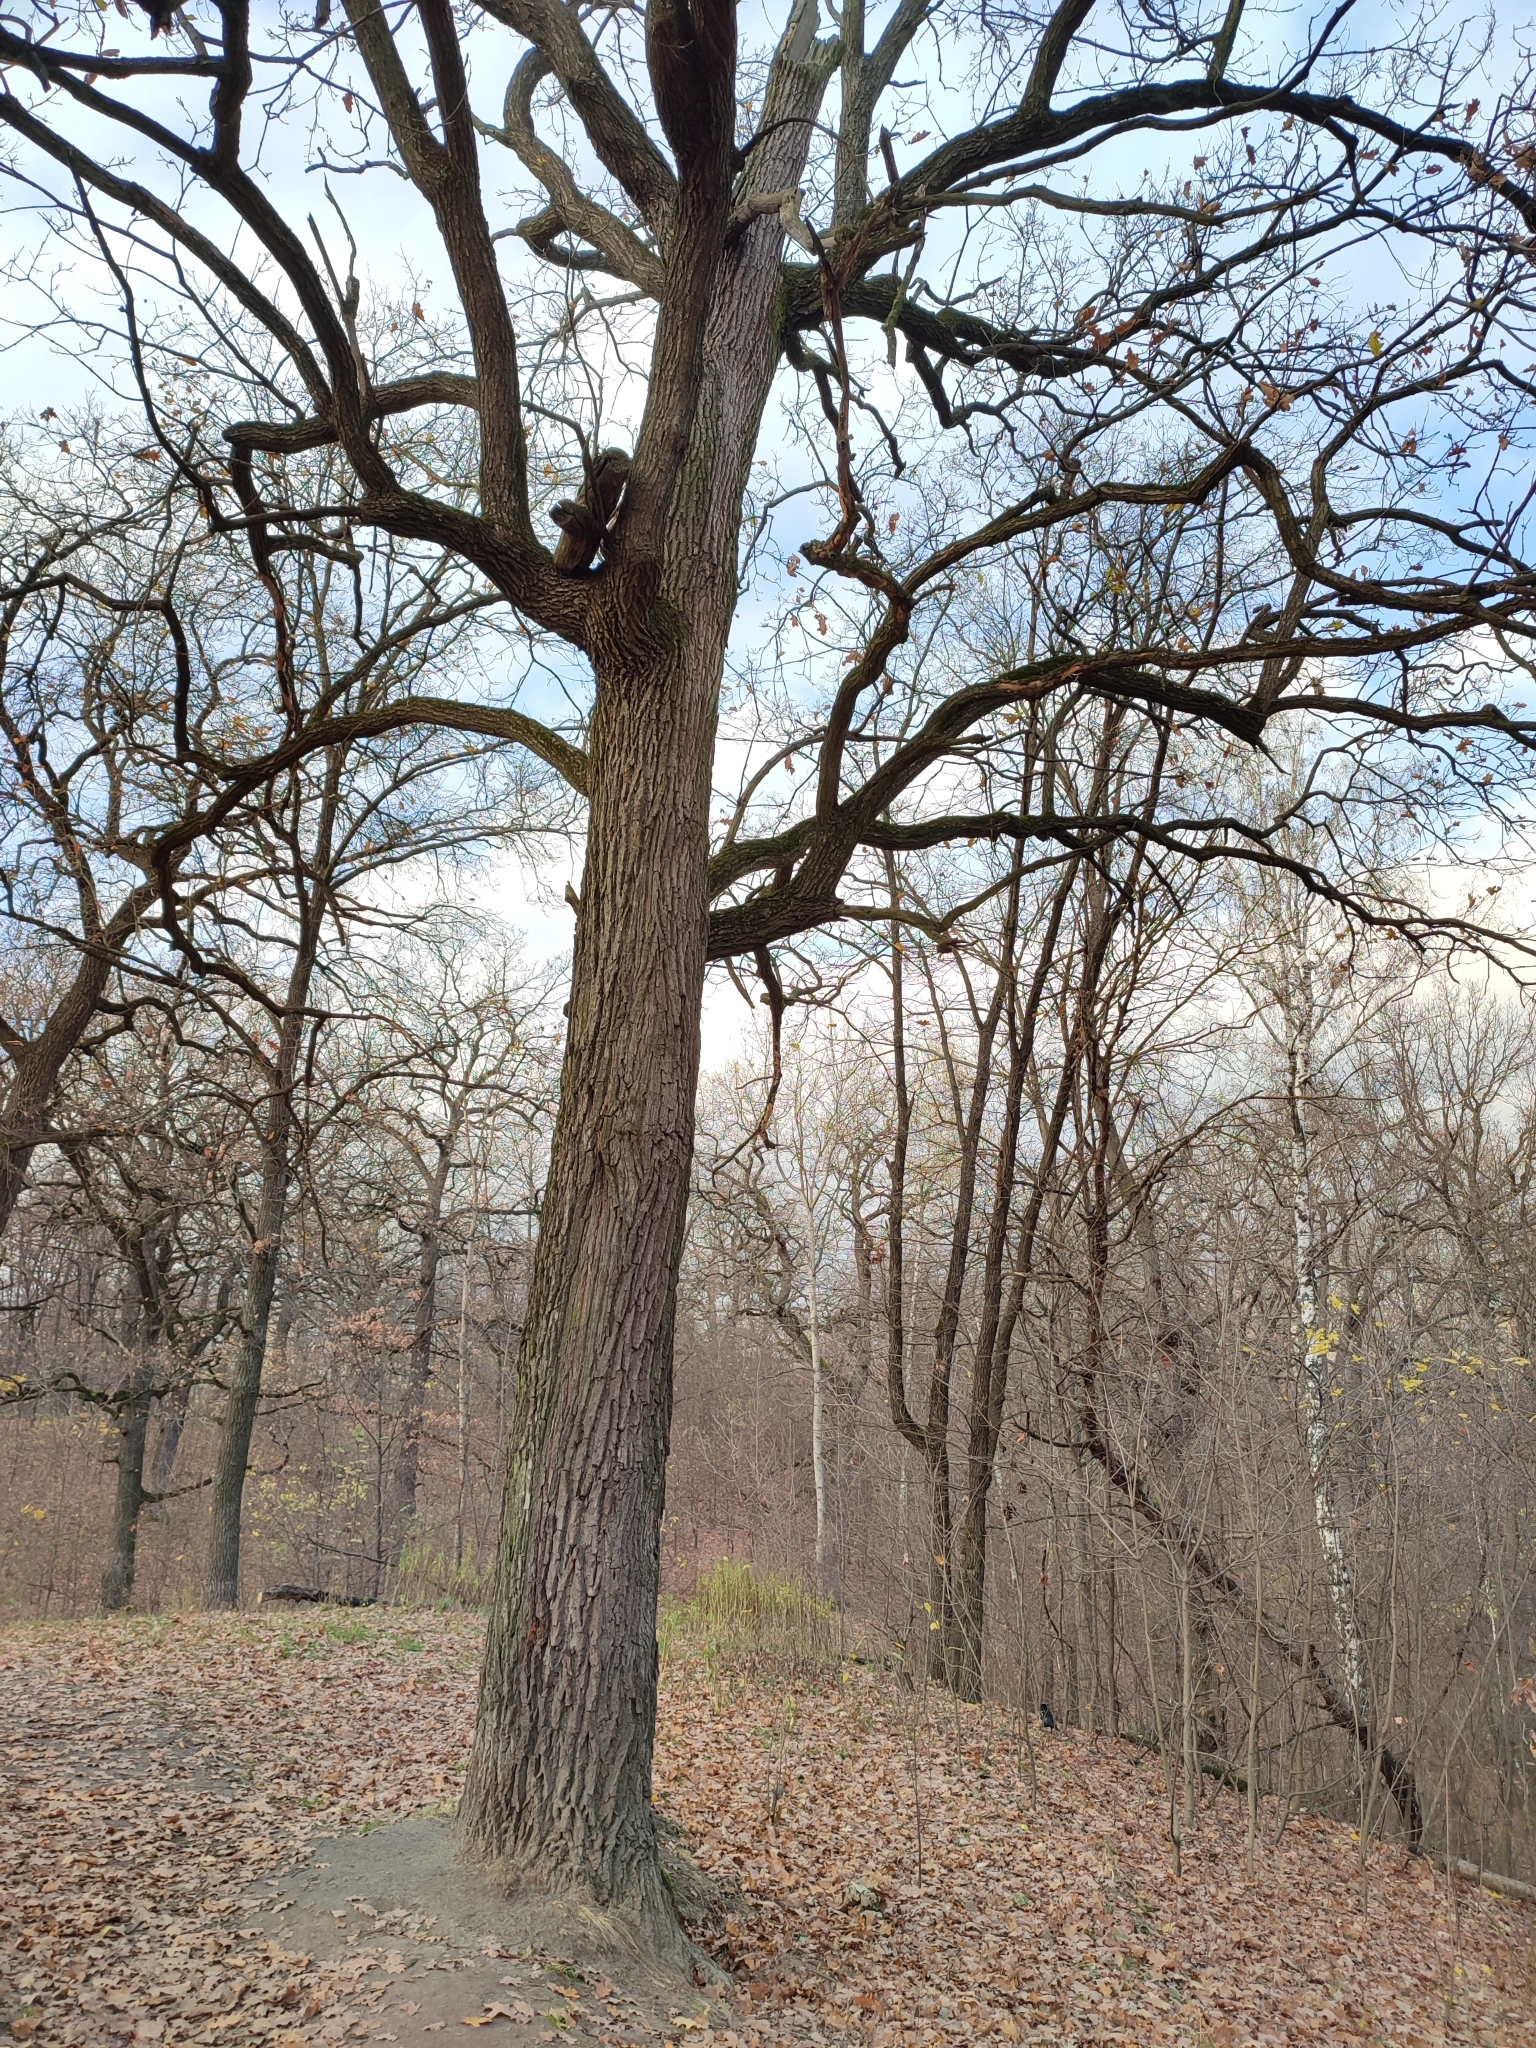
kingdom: Plantae
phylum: Tracheophyta
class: Magnoliopsida
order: Fagales
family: Fagaceae
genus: Quercus
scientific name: Quercus robur
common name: Pedunculate oak
